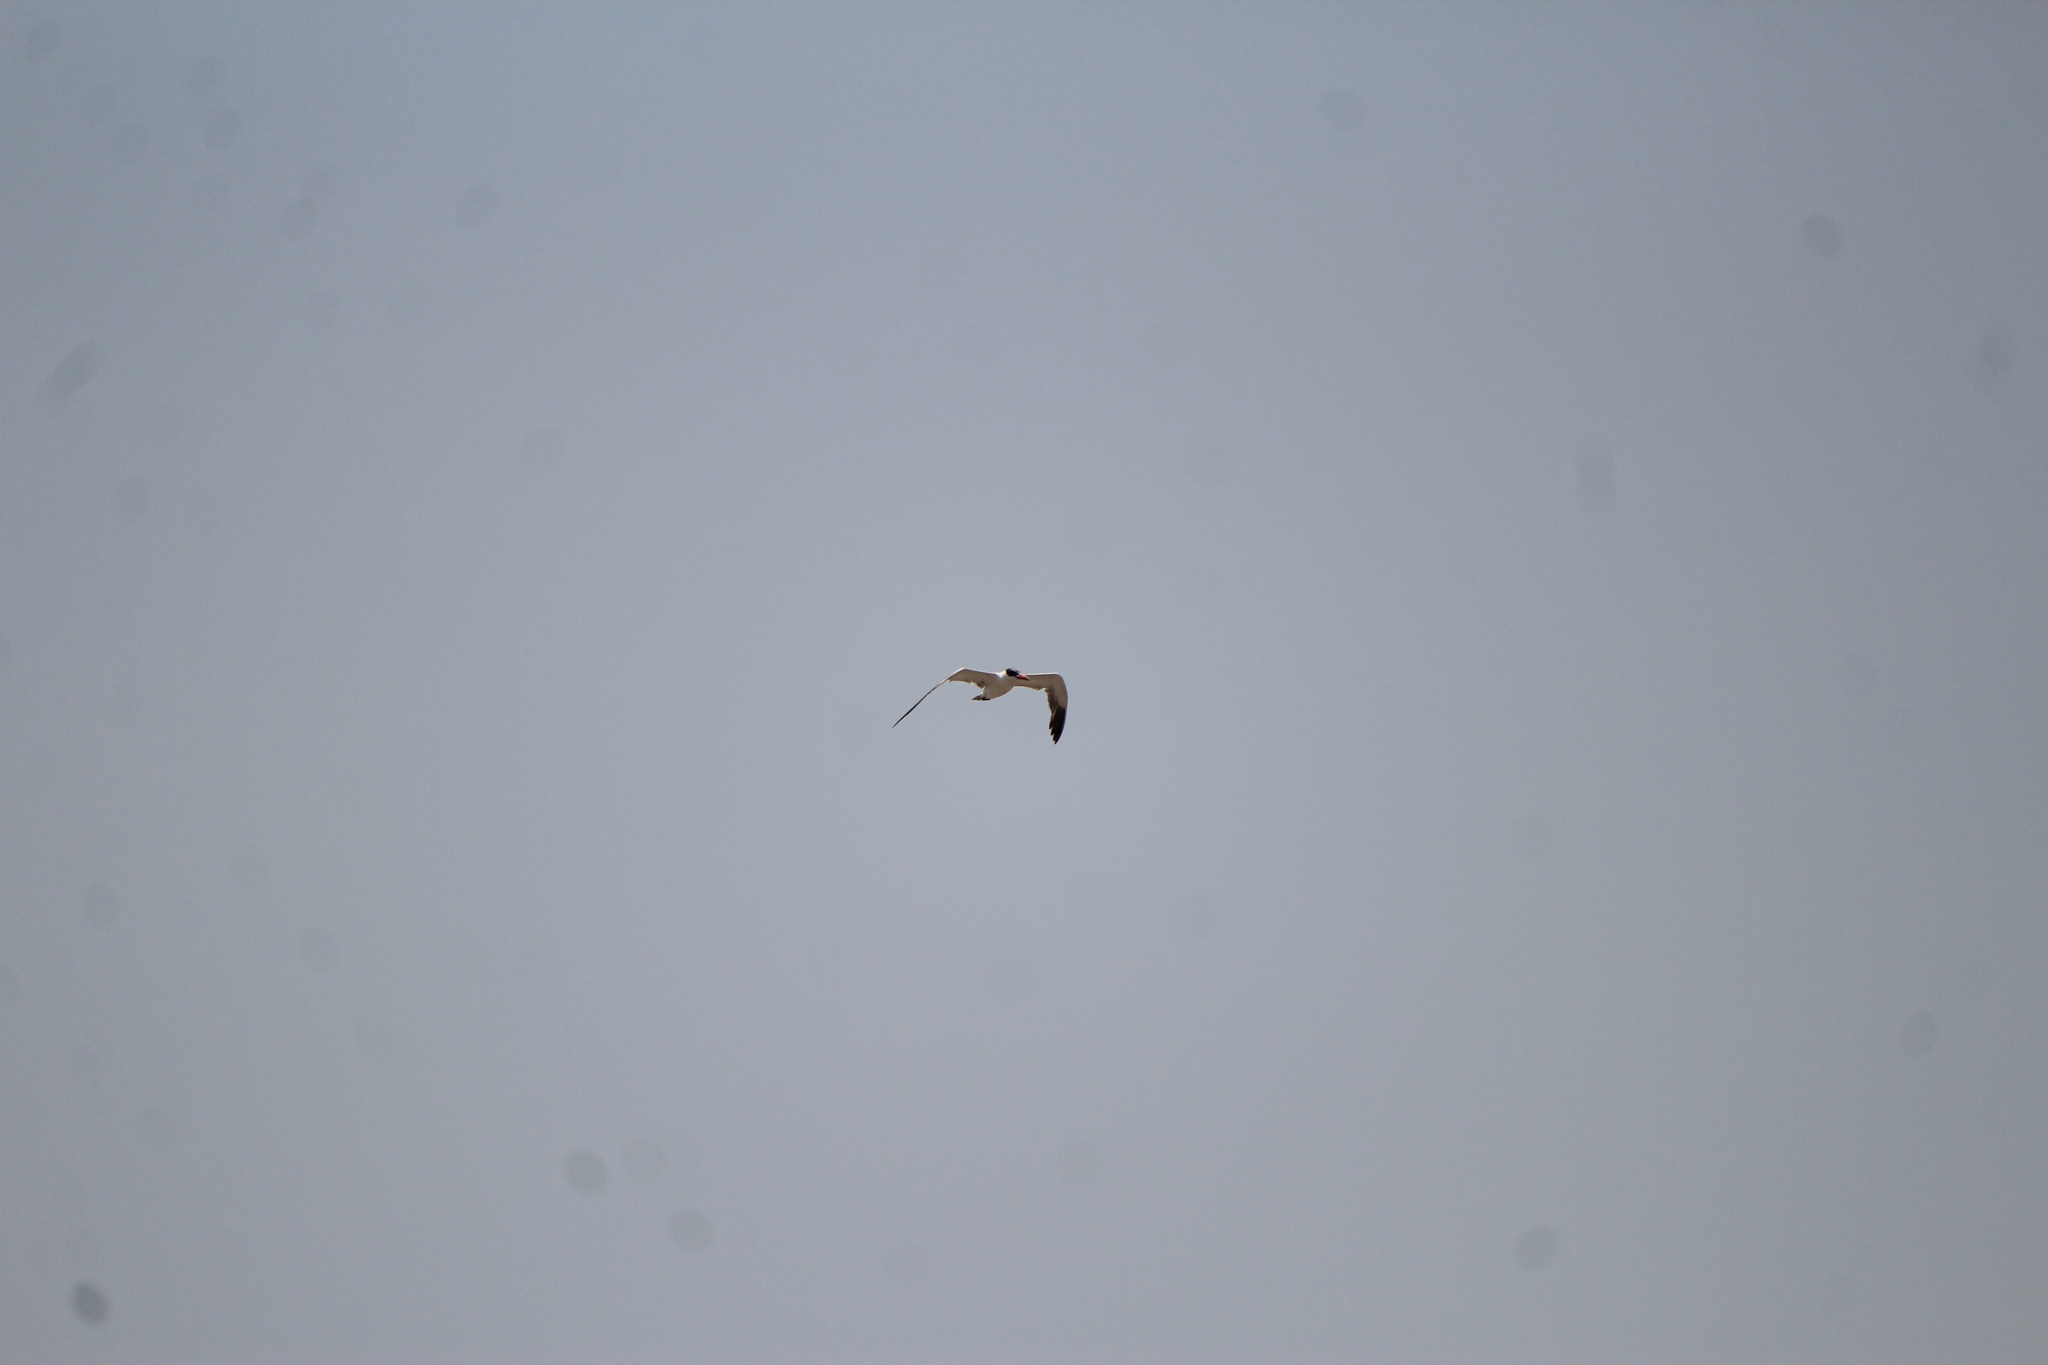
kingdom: Animalia
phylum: Chordata
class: Aves
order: Charadriiformes
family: Laridae
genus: Hydroprogne
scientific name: Hydroprogne caspia
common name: Caspian tern
